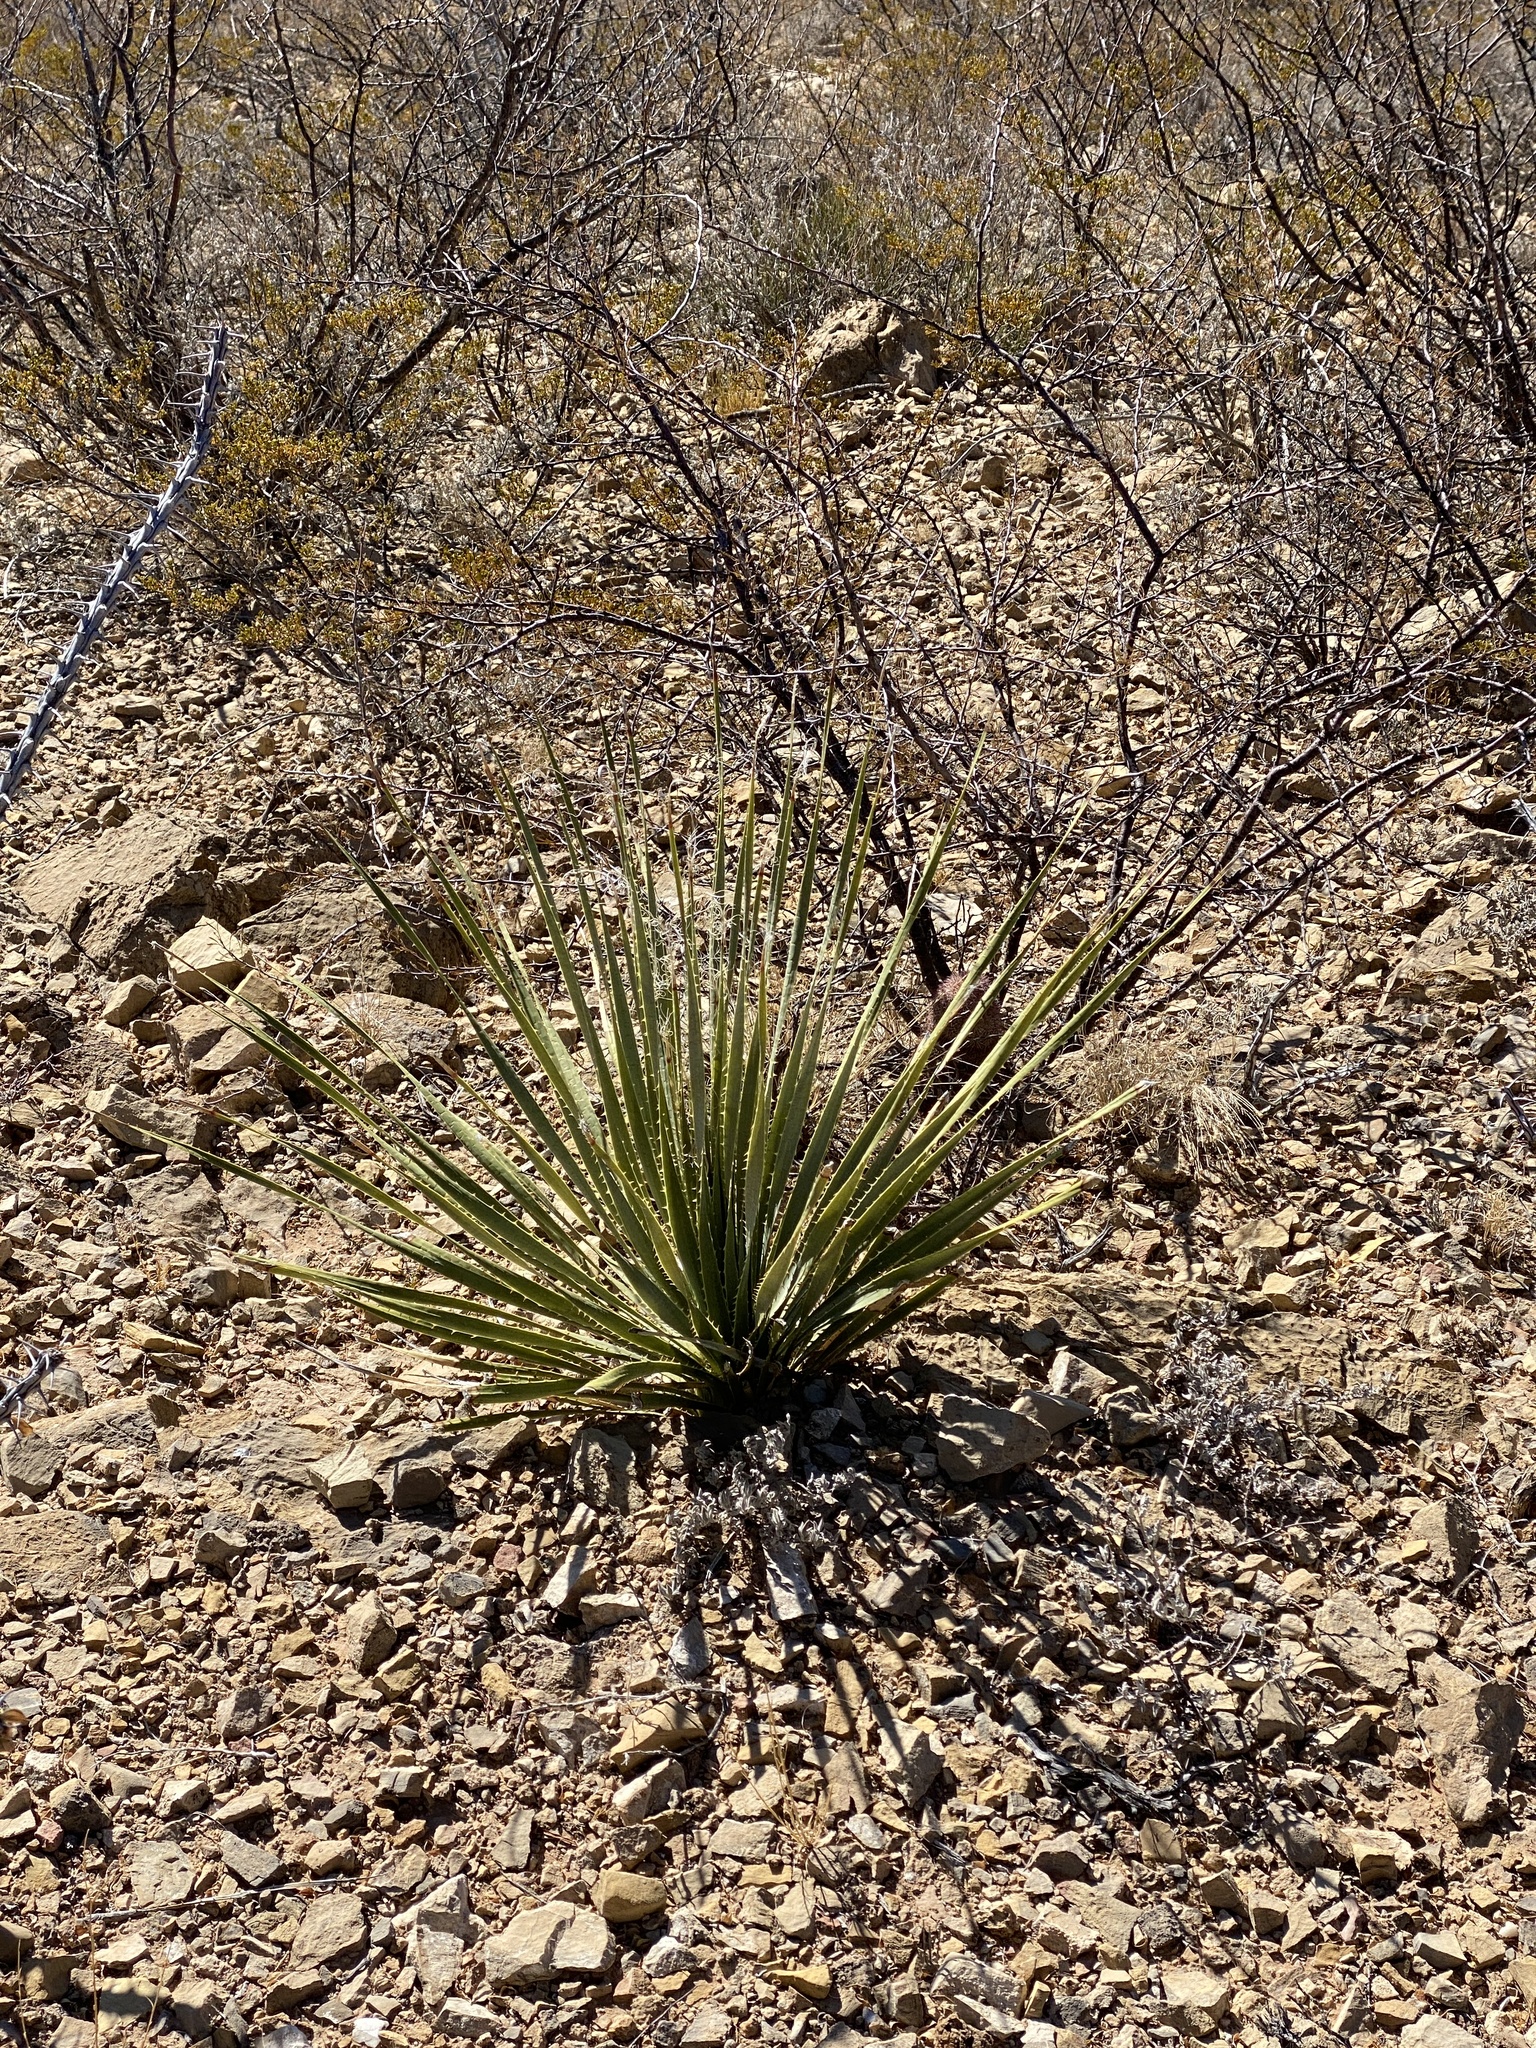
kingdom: Plantae
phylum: Tracheophyta
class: Liliopsida
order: Asparagales
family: Asparagaceae
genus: Dasylirion
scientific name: Dasylirion wheeleri
